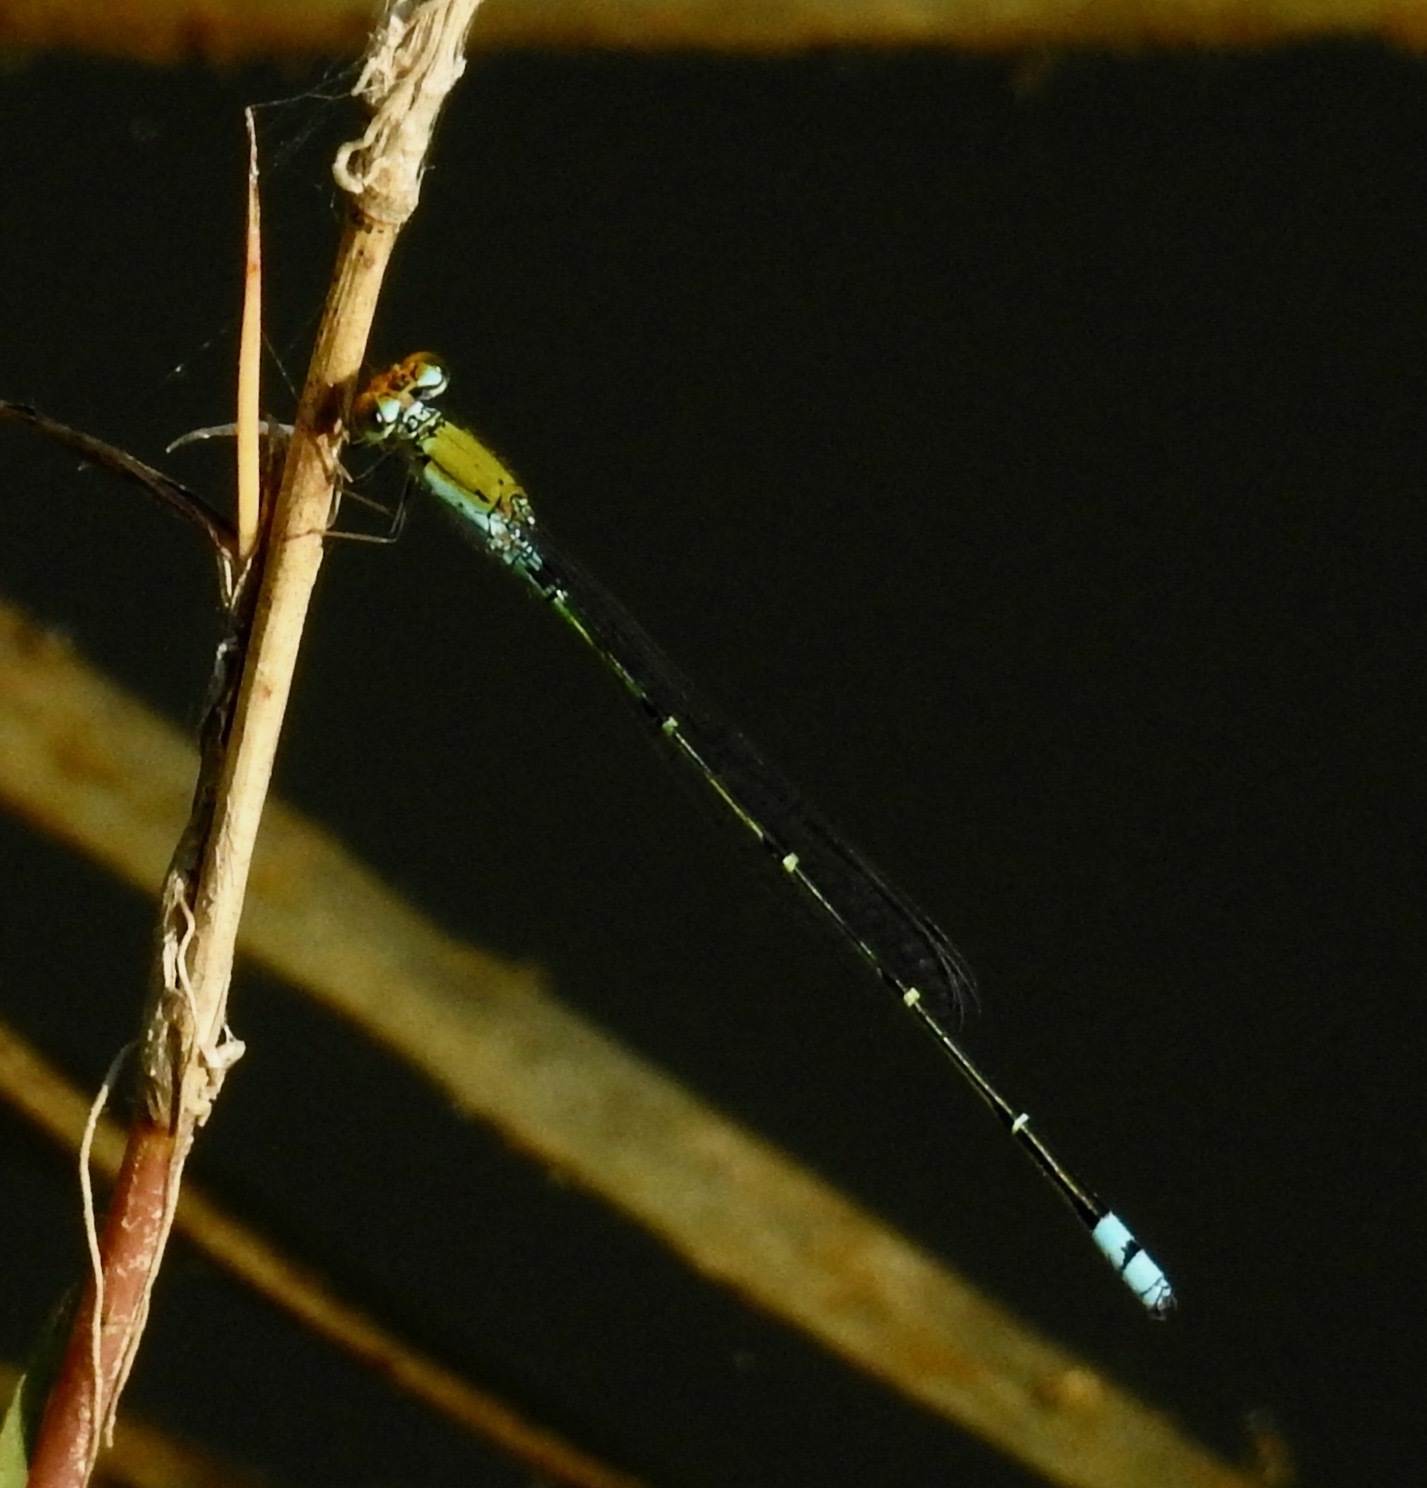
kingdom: Animalia
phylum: Arthropoda
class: Insecta
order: Odonata
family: Coenagrionidae
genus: Pseudagrion
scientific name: Pseudagrion rubriceps
